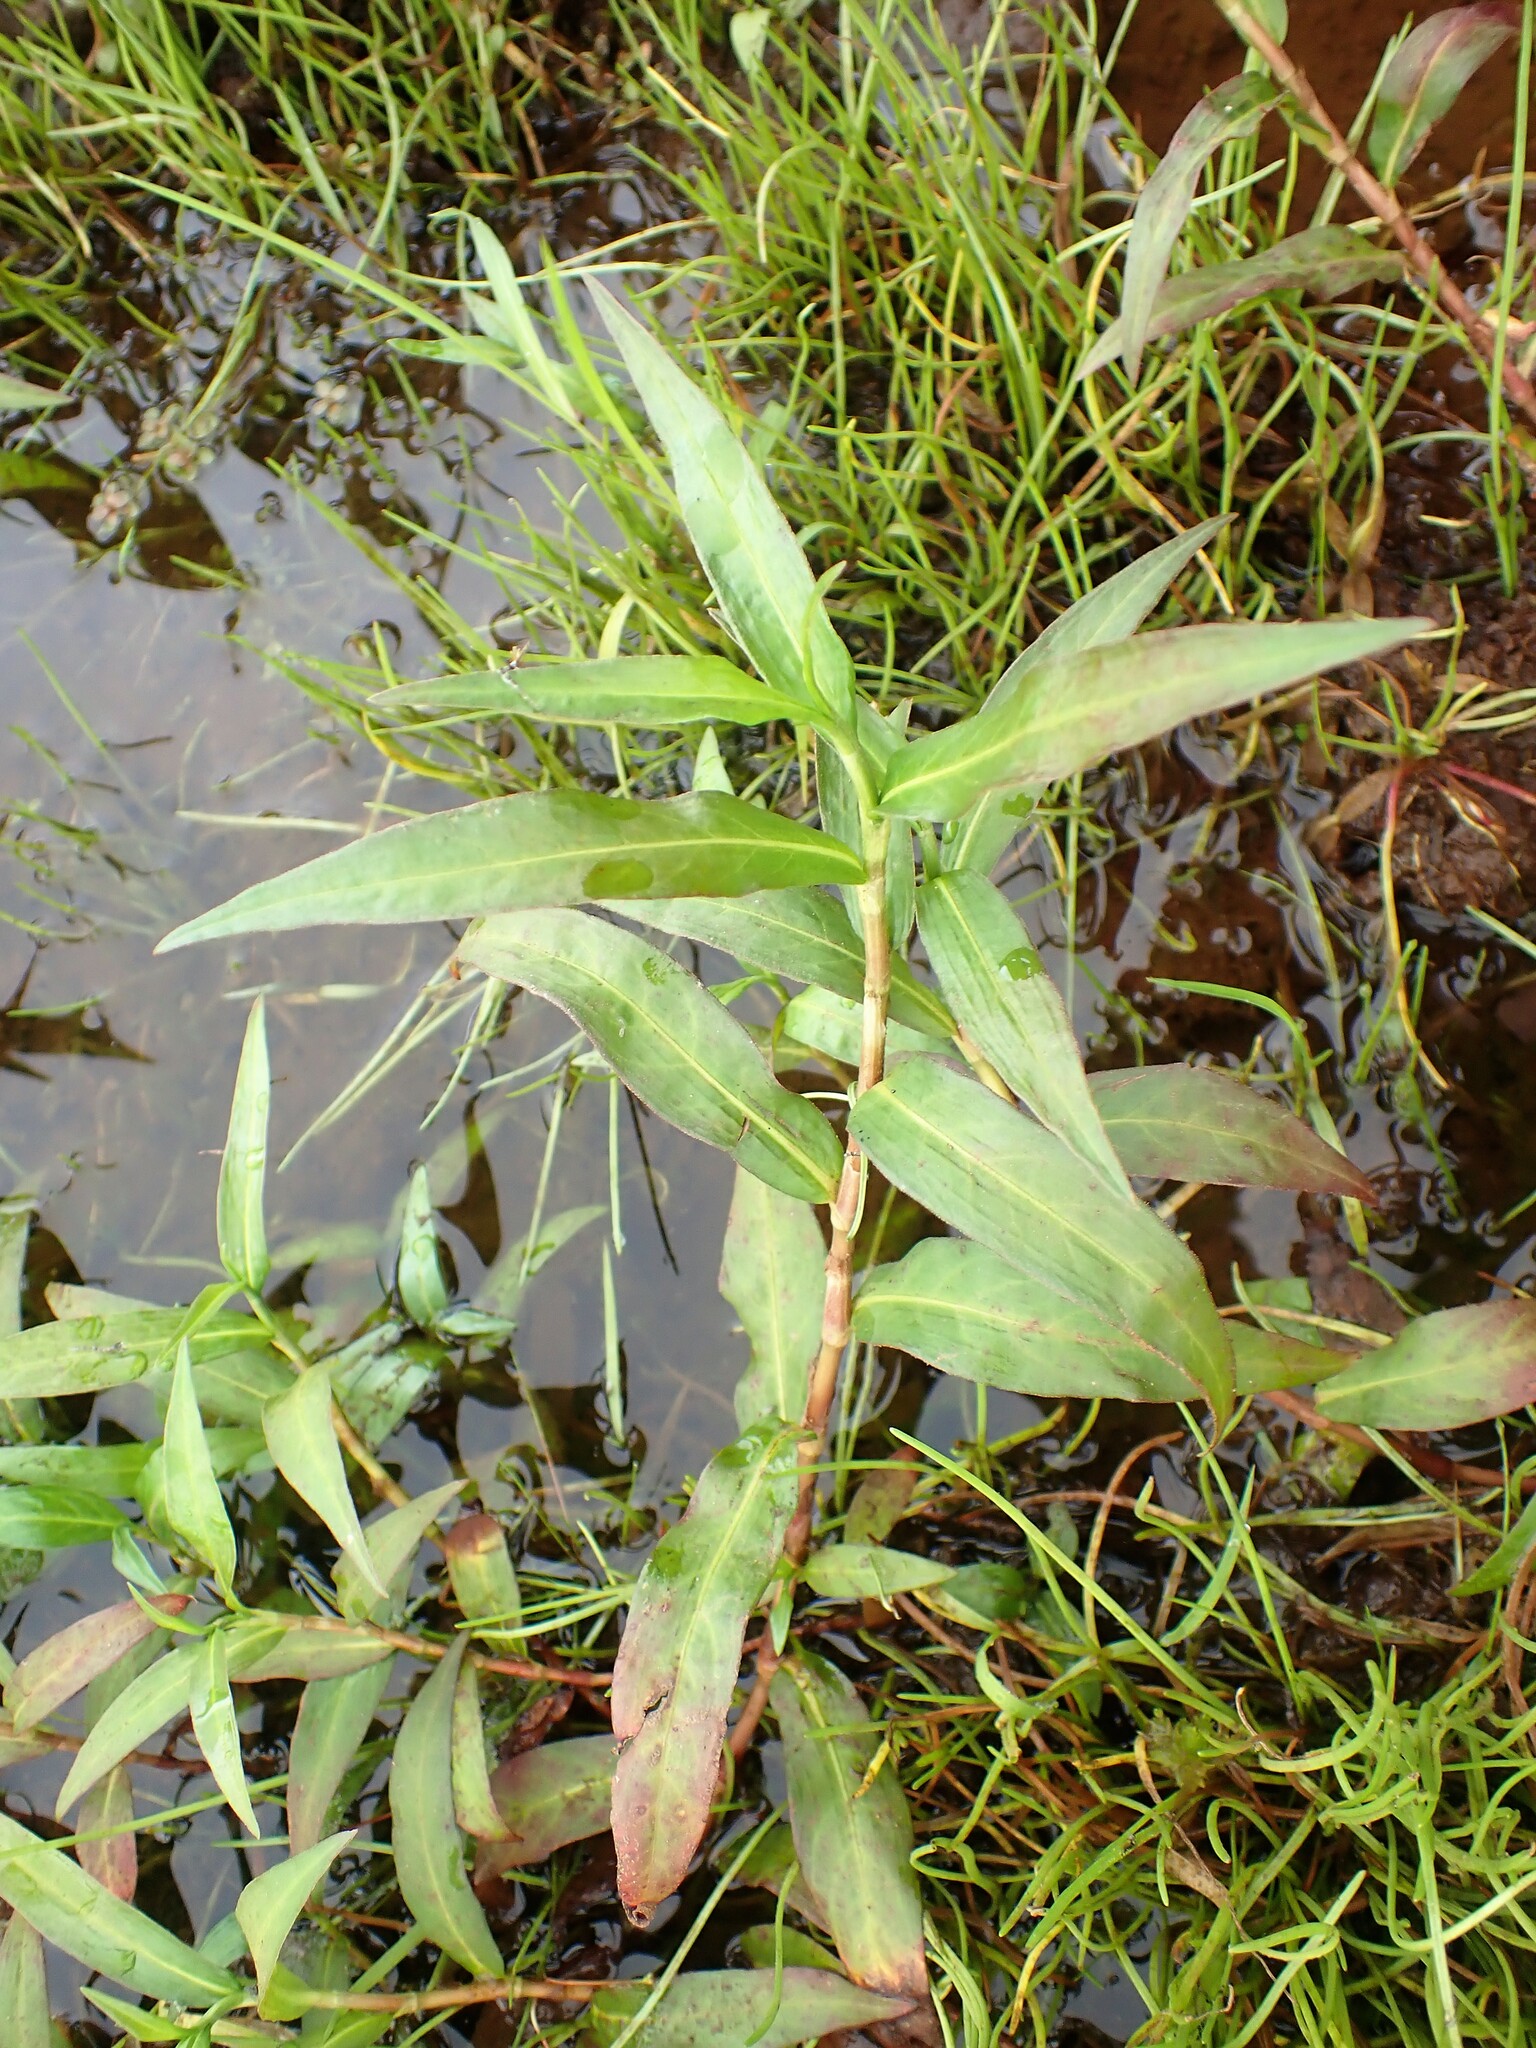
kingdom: Plantae
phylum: Tracheophyta
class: Magnoliopsida
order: Caryophyllales
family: Polygonaceae
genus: Persicaria
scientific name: Persicaria hydropiperoides
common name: Swamp smartweed
